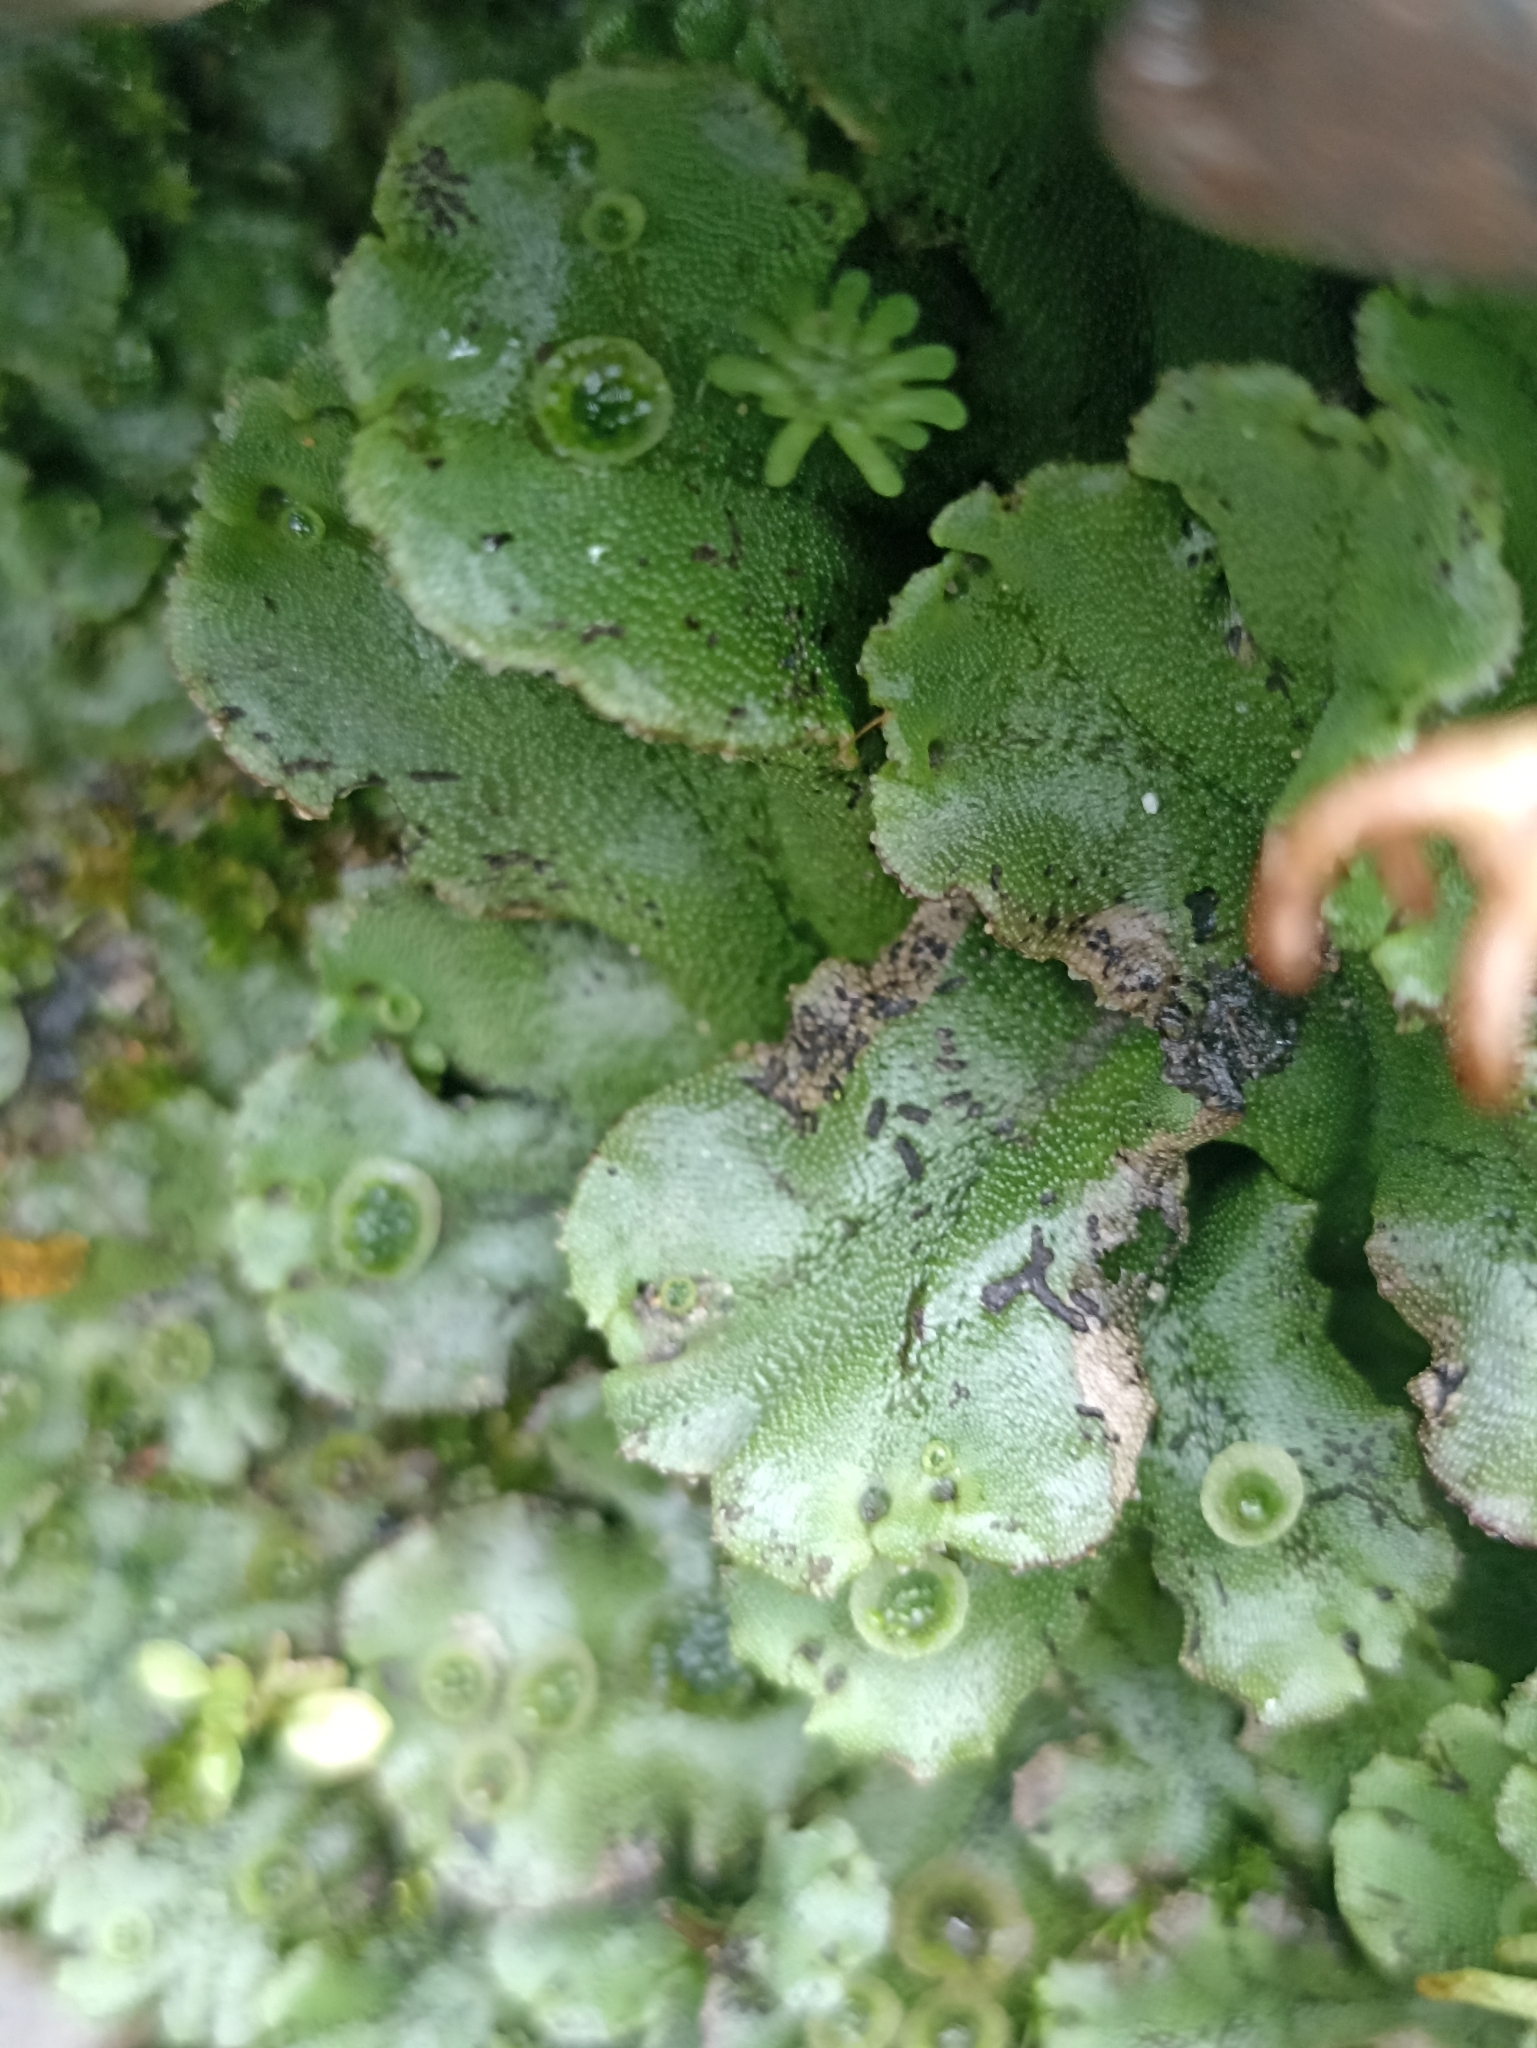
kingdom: Plantae
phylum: Marchantiophyta
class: Marchantiopsida
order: Marchantiales
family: Marchantiaceae
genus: Marchantia
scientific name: Marchantia polymorpha
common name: Common liverwort
